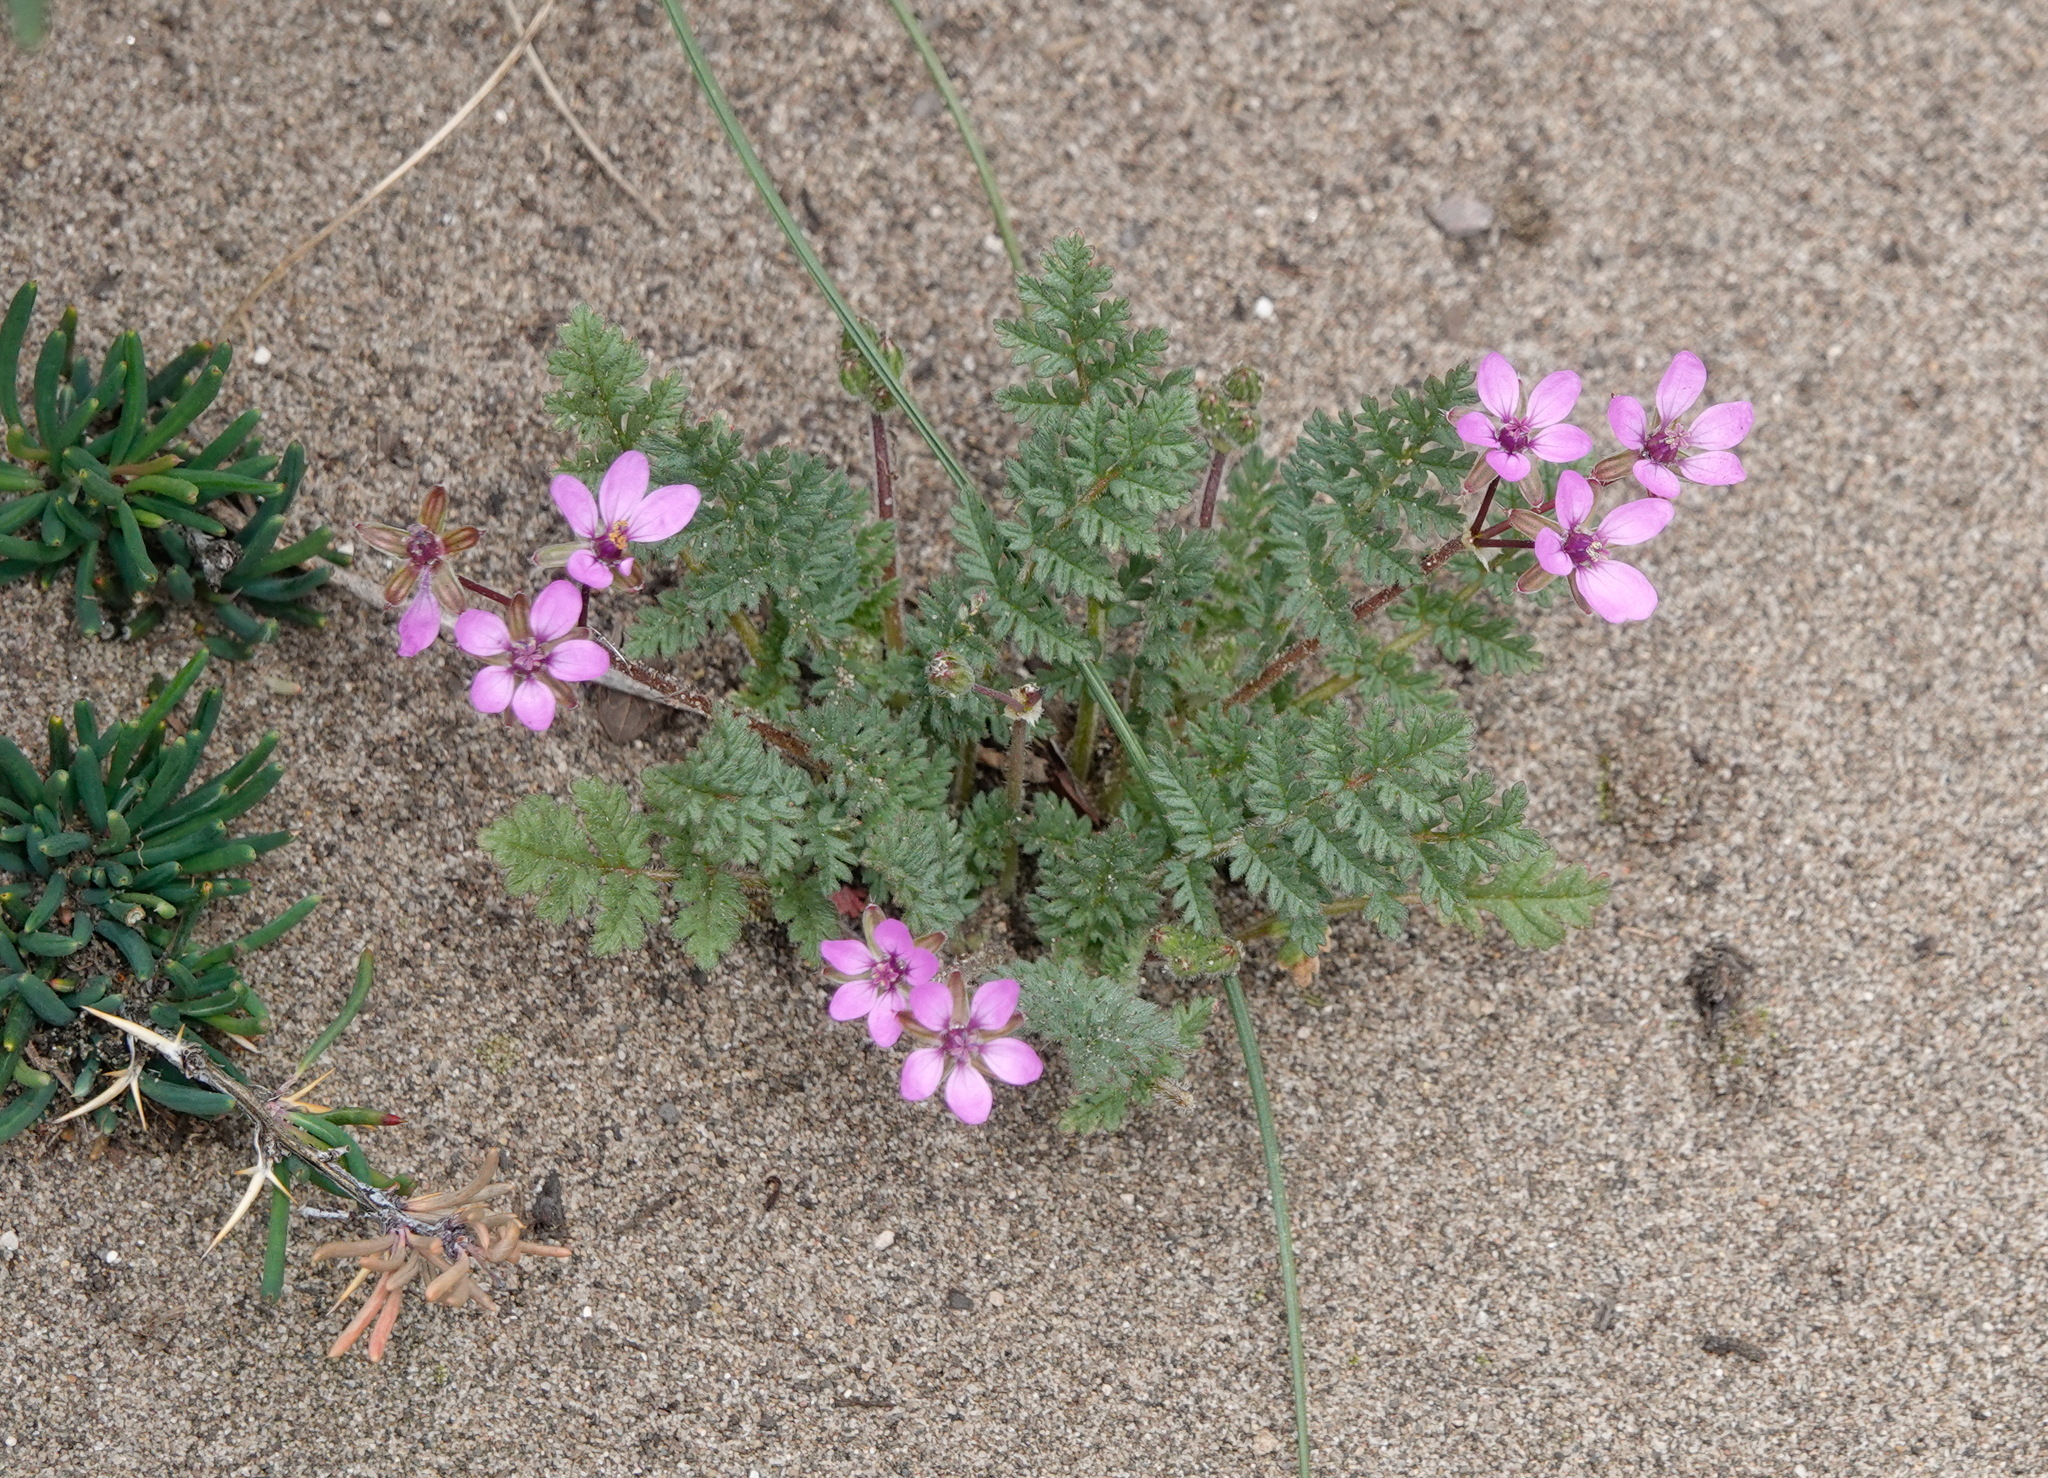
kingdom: Plantae
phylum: Tracheophyta
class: Magnoliopsida
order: Geraniales
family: Geraniaceae
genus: Erodium
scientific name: Erodium cicutarium
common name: Common stork's-bill
